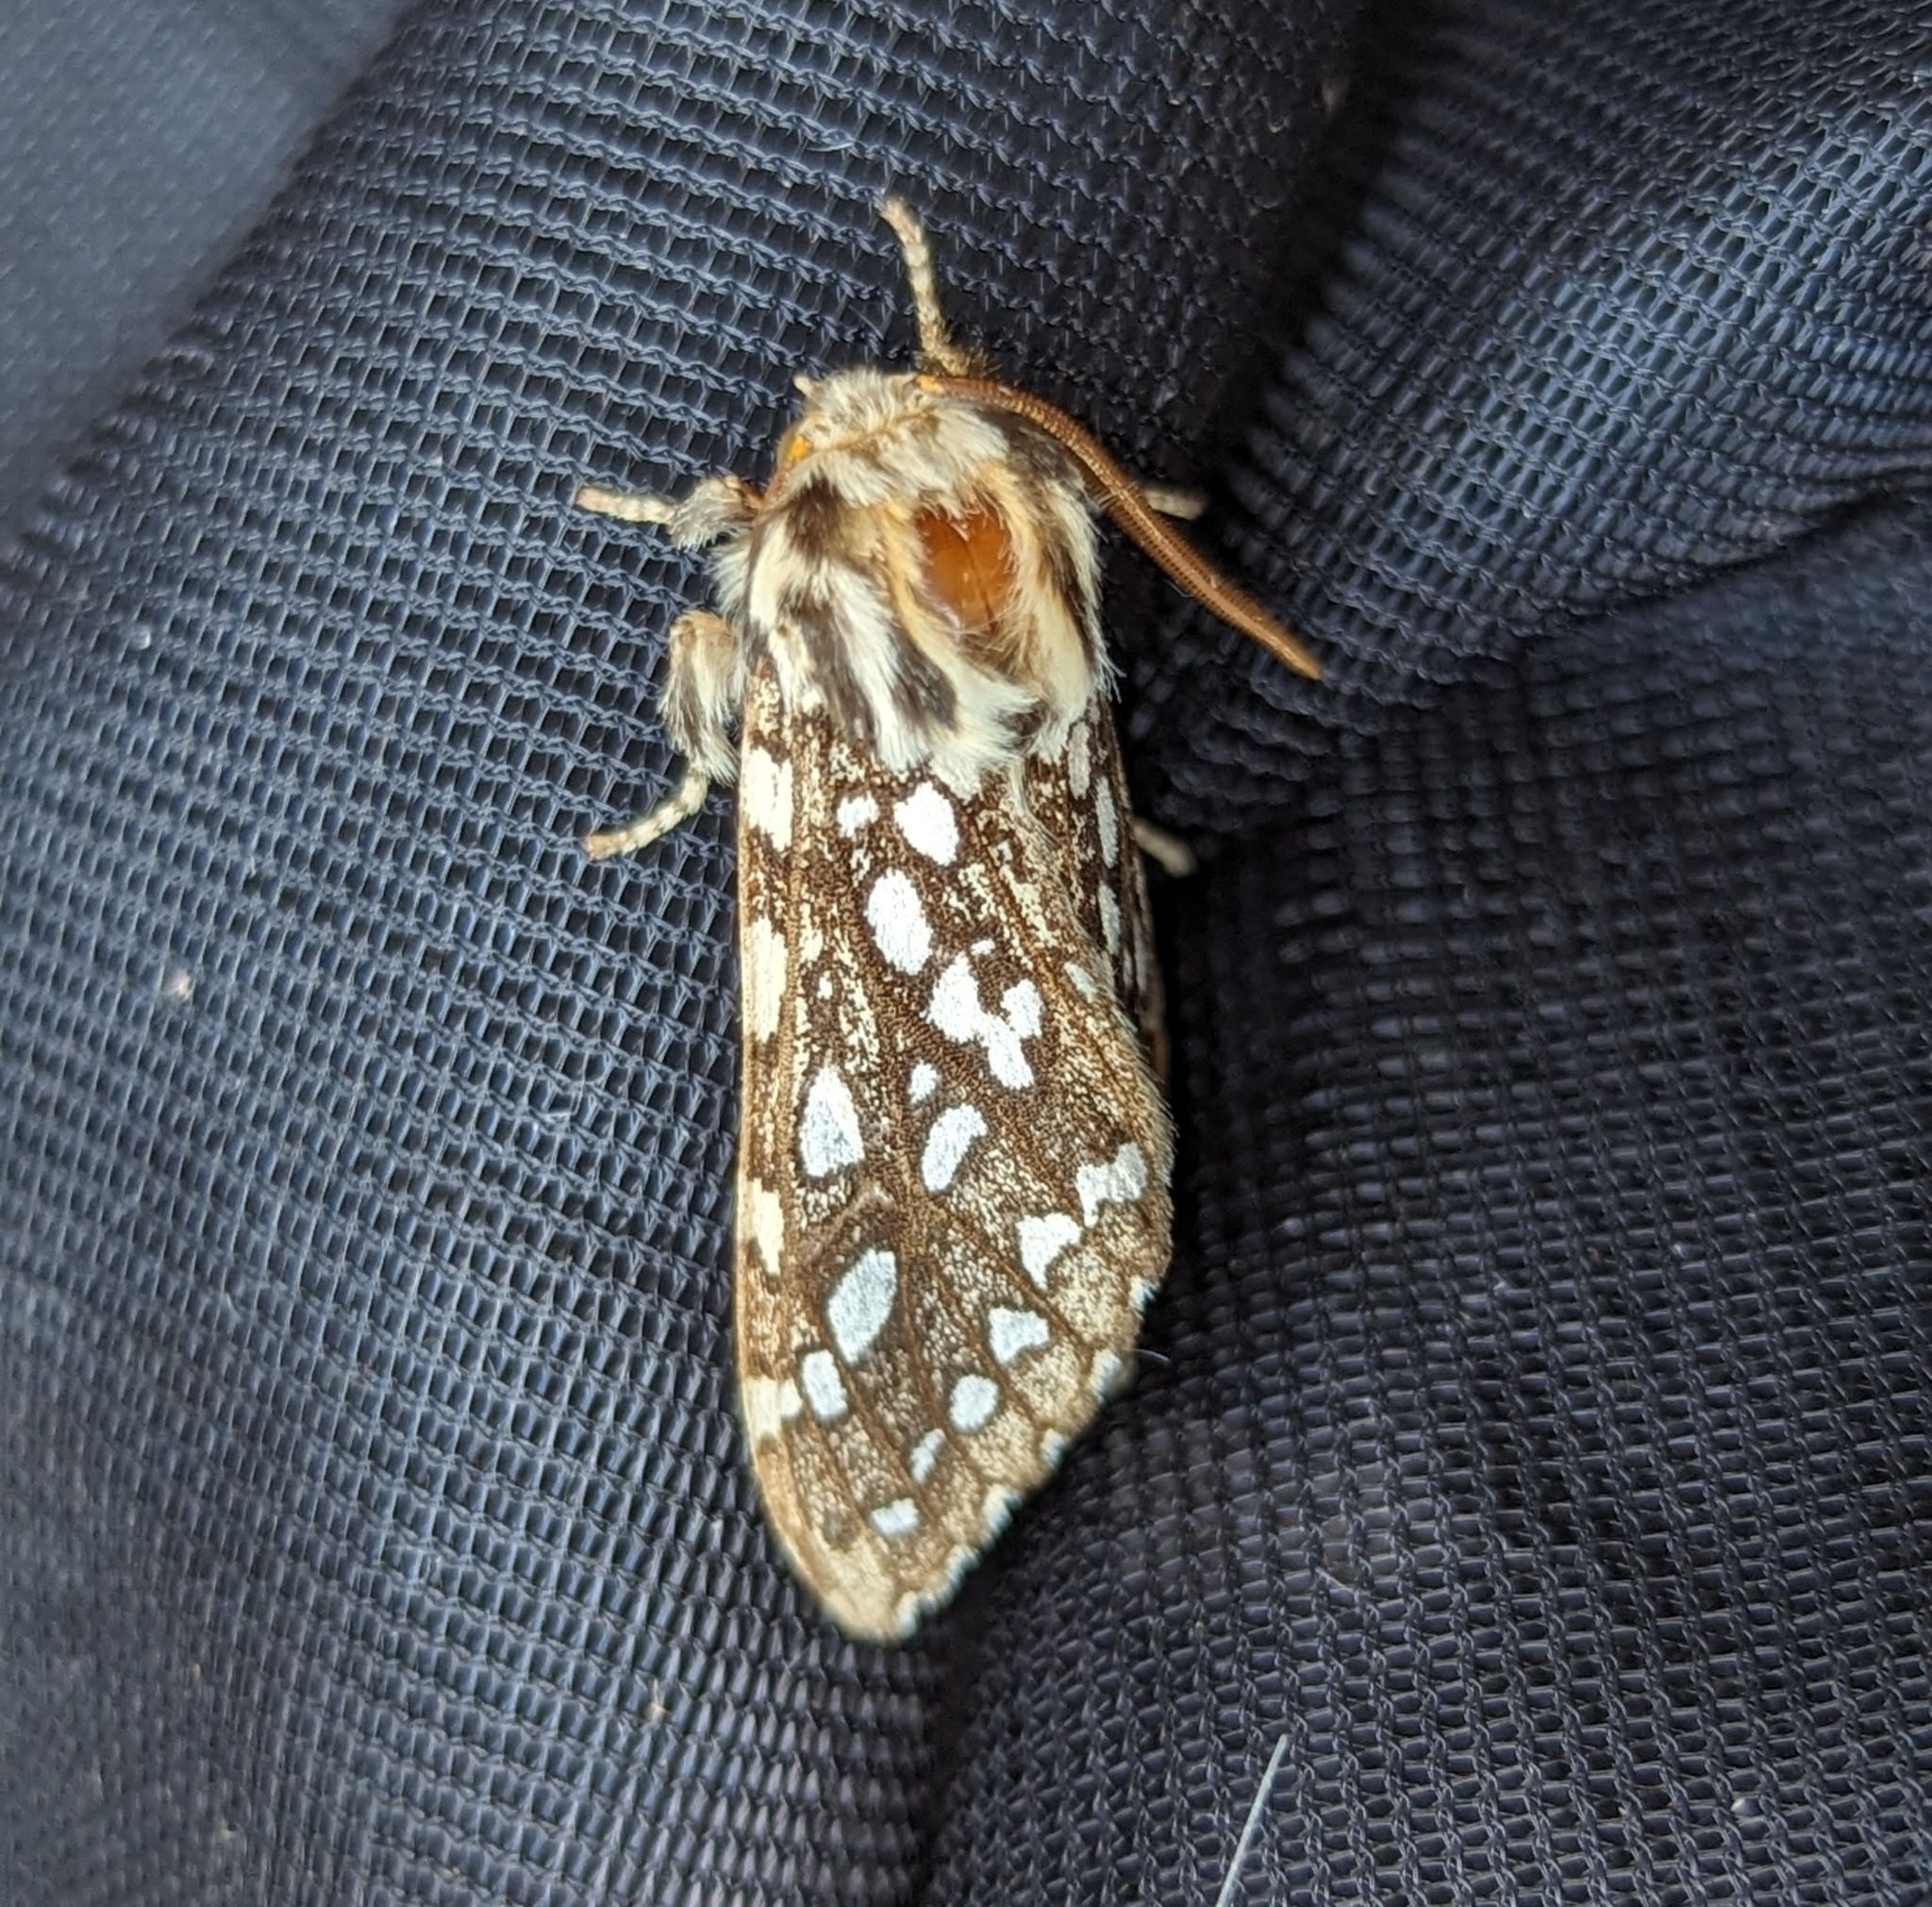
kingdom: Animalia
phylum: Arthropoda
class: Insecta
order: Lepidoptera
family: Erebidae
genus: Lophocampa
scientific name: Lophocampa argentata
